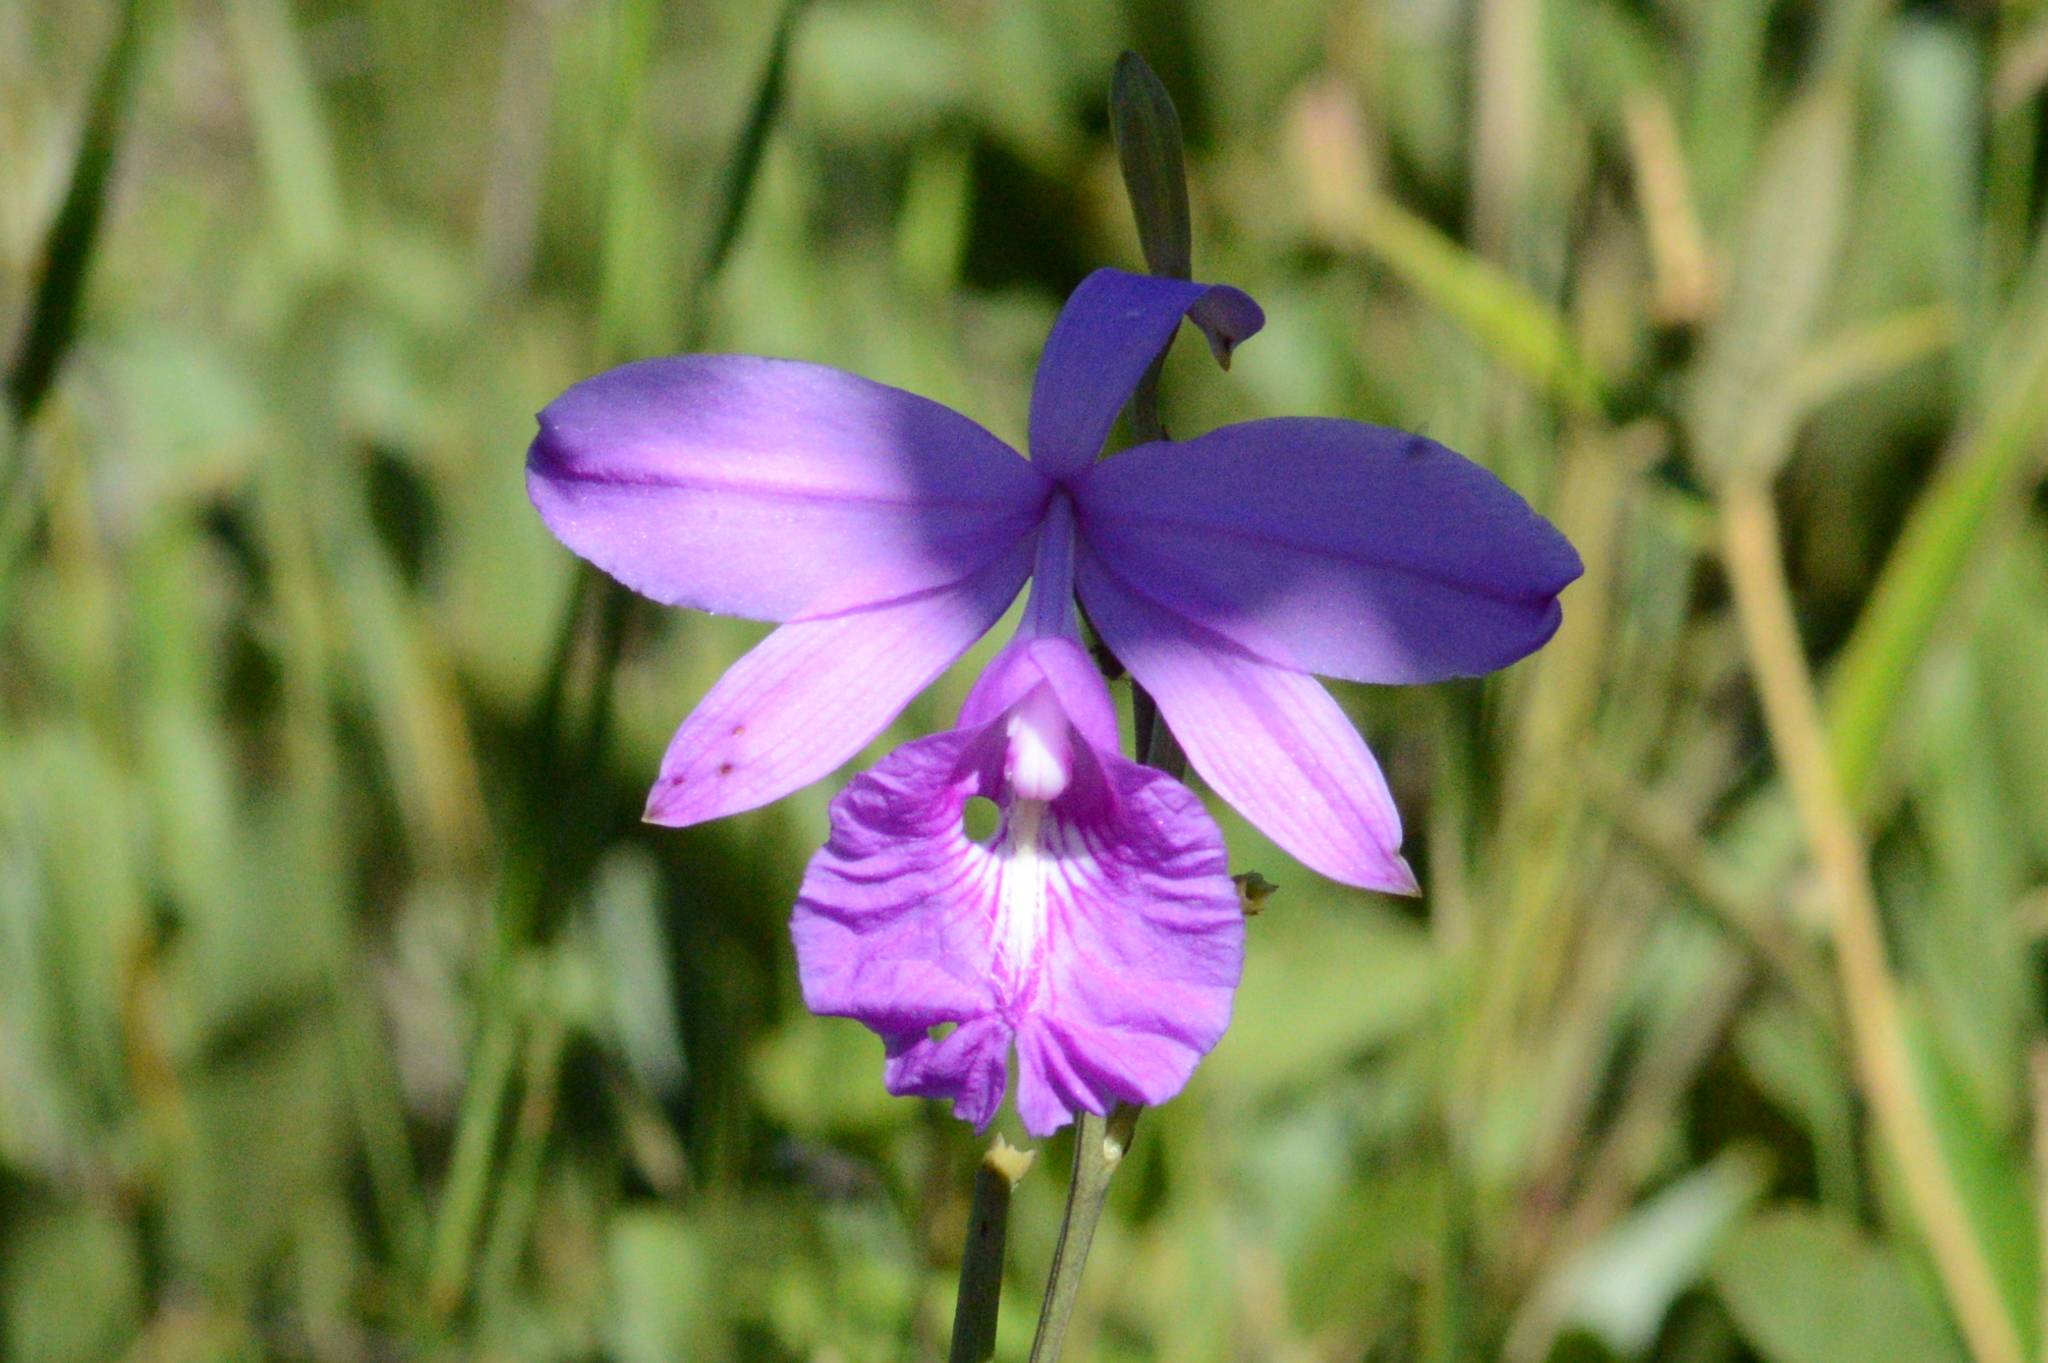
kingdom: Plantae
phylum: Tracheophyta
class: Liliopsida
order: Asparagales
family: Orchidaceae
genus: Epistephium
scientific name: Epistephium sclerophyllum
